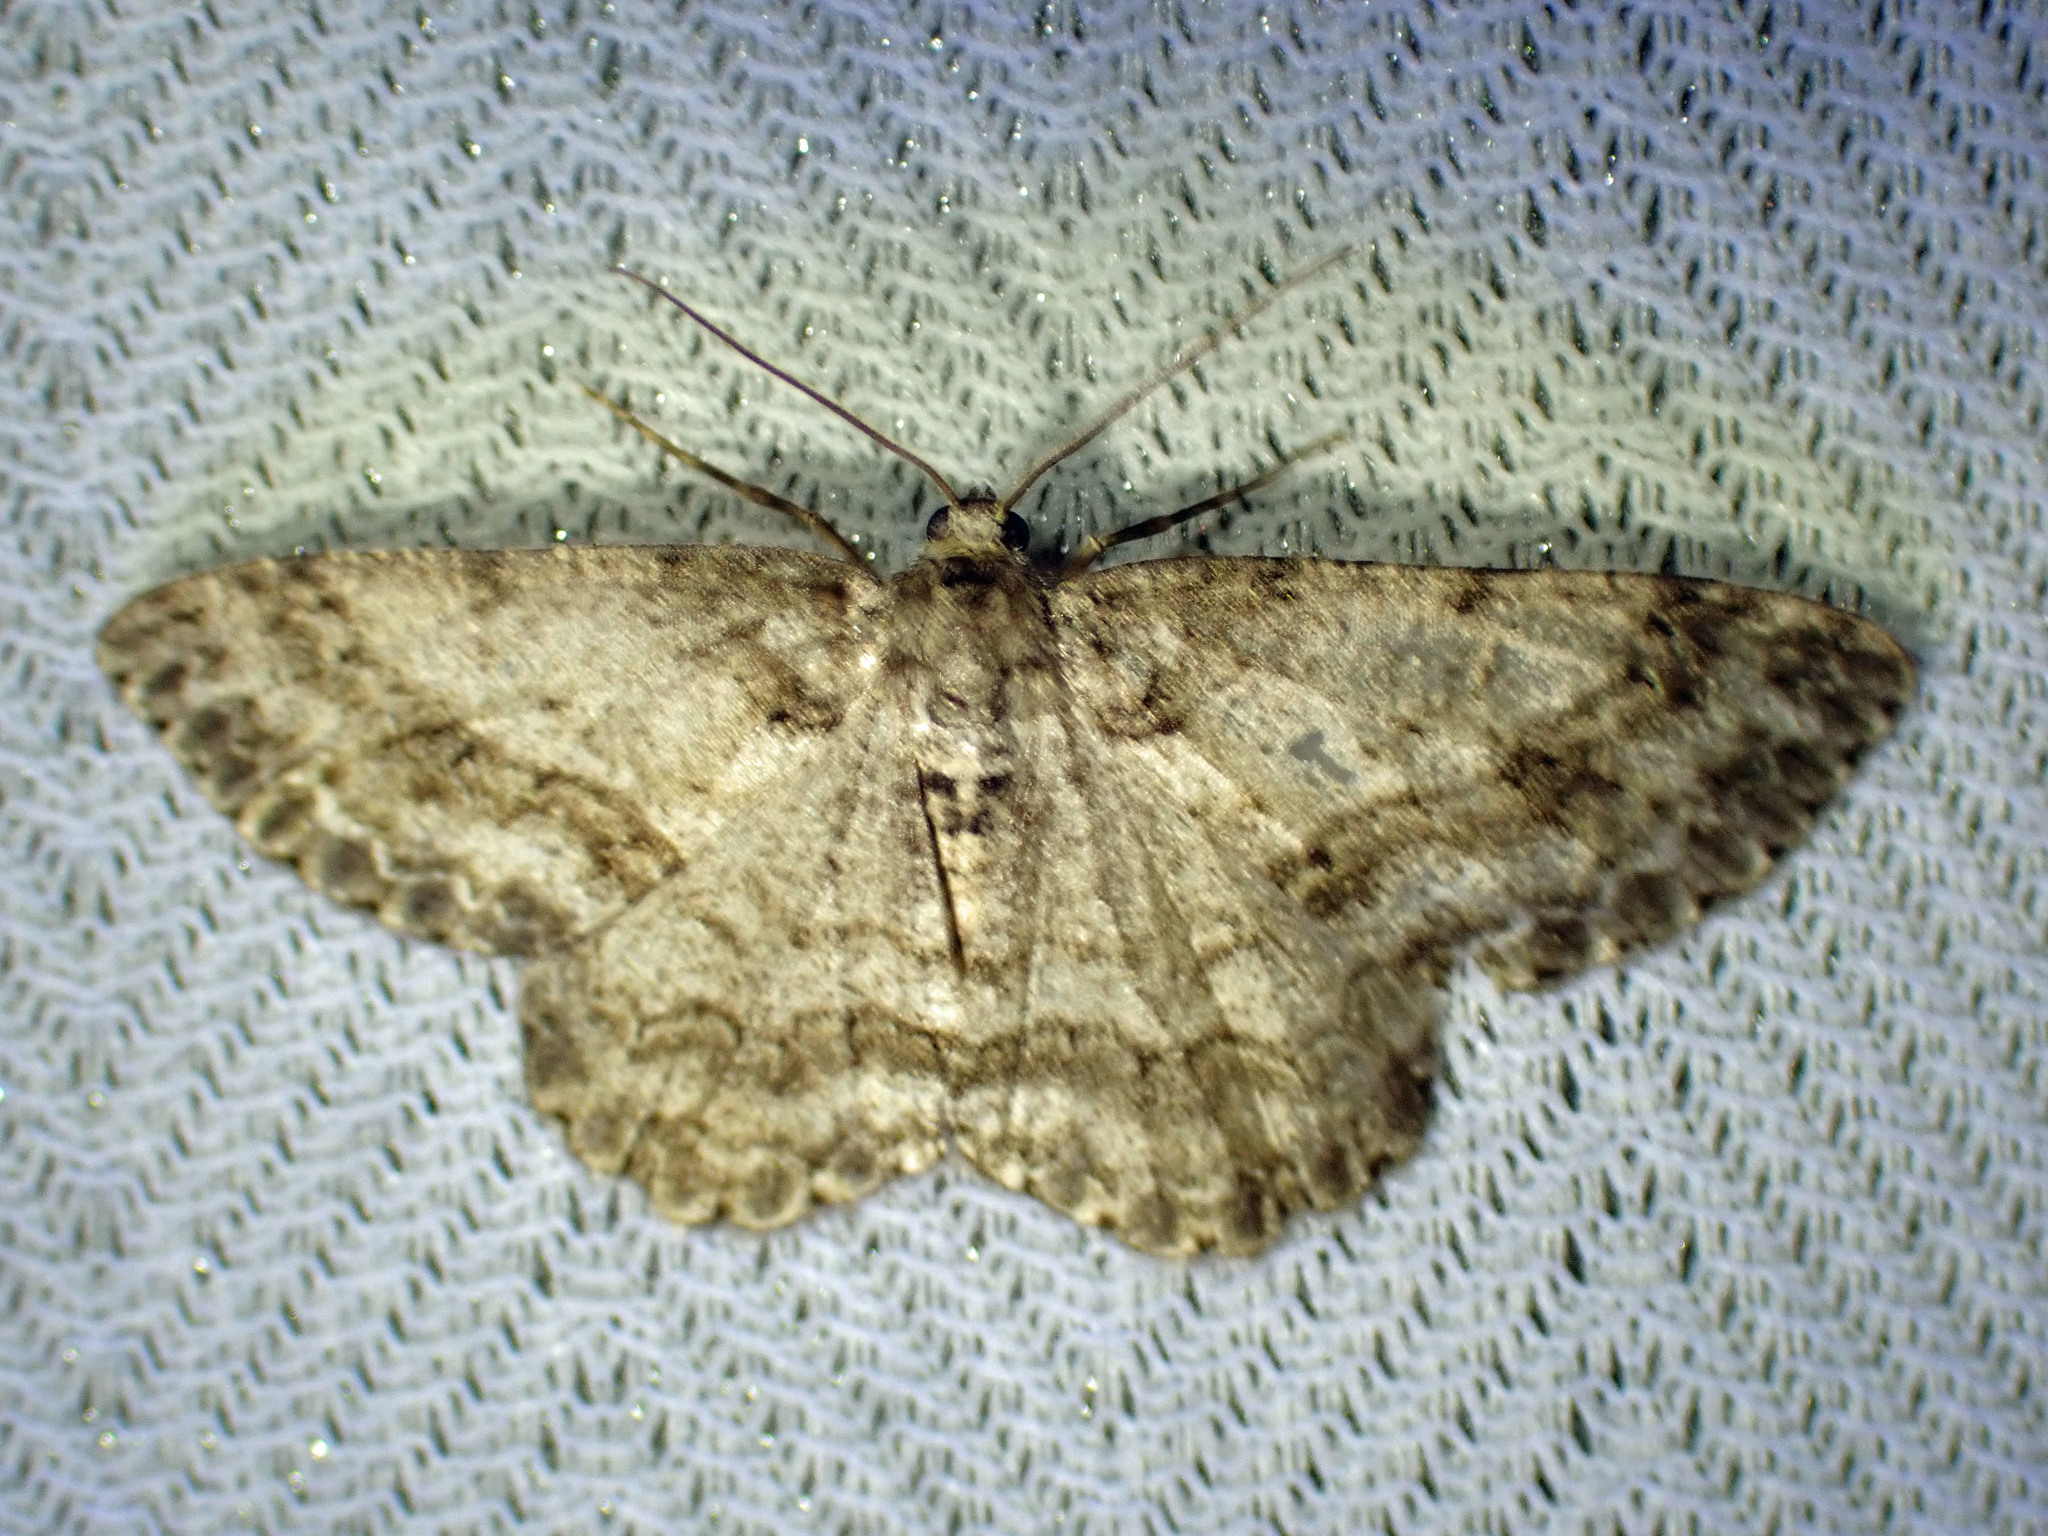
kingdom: Animalia
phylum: Arthropoda
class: Insecta
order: Lepidoptera
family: Geometridae
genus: Ectropis
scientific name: Ectropis crepuscularia
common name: Engrailed
